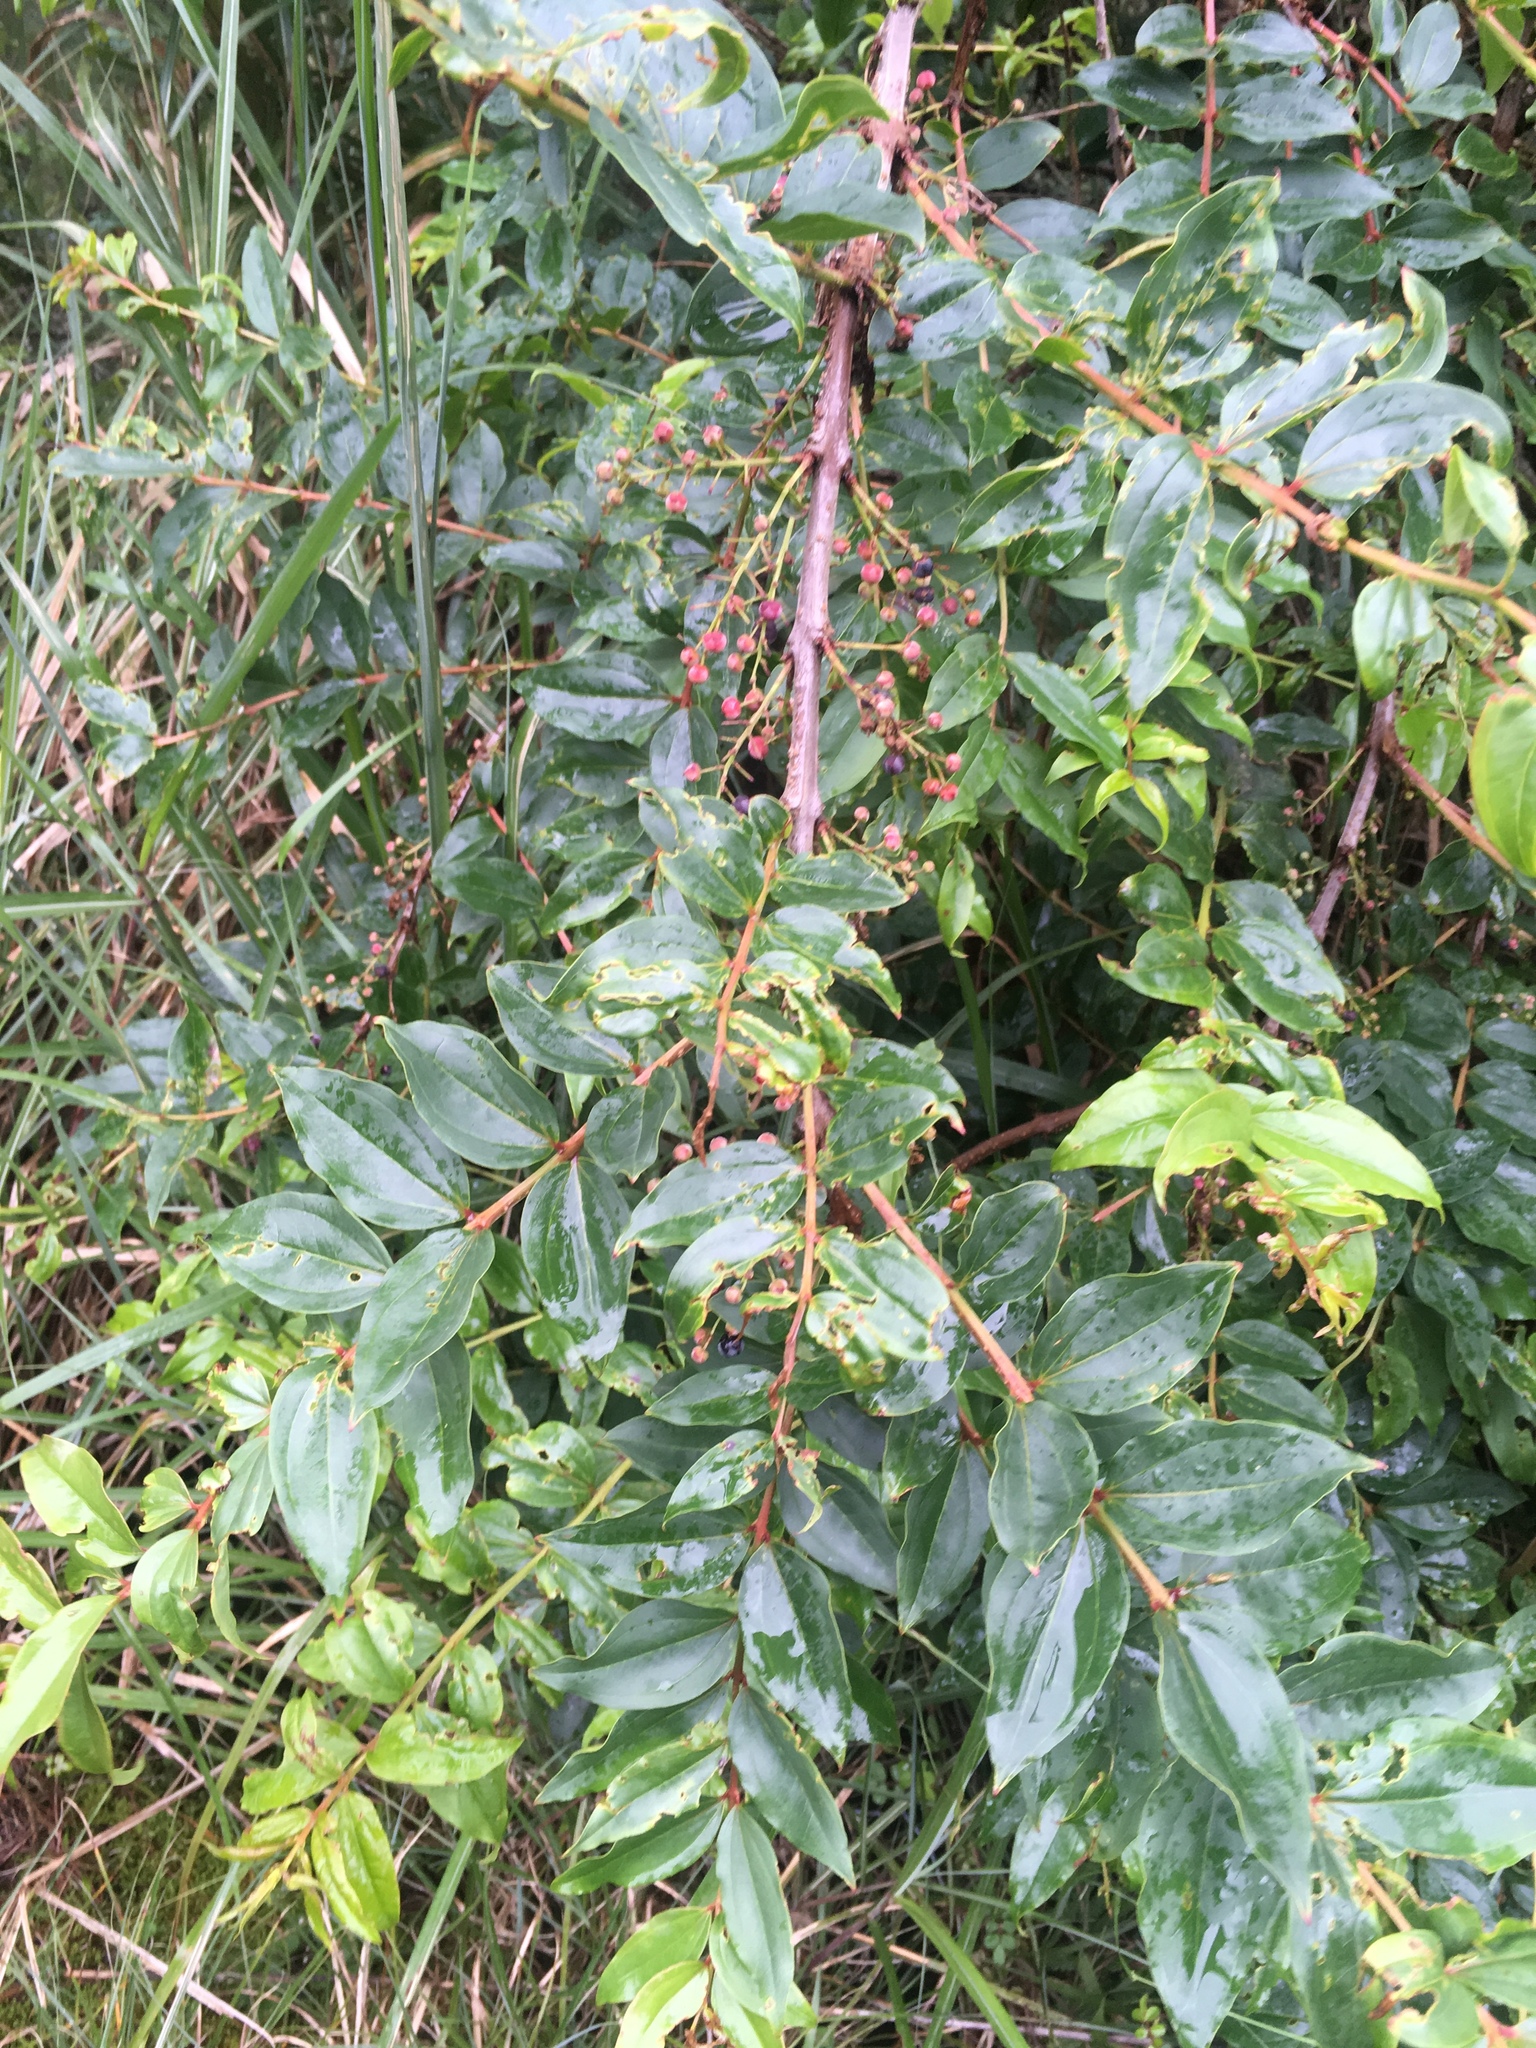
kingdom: Plantae
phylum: Tracheophyta
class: Magnoliopsida
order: Cucurbitales
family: Coriariaceae
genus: Coriaria
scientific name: Coriaria japonica
